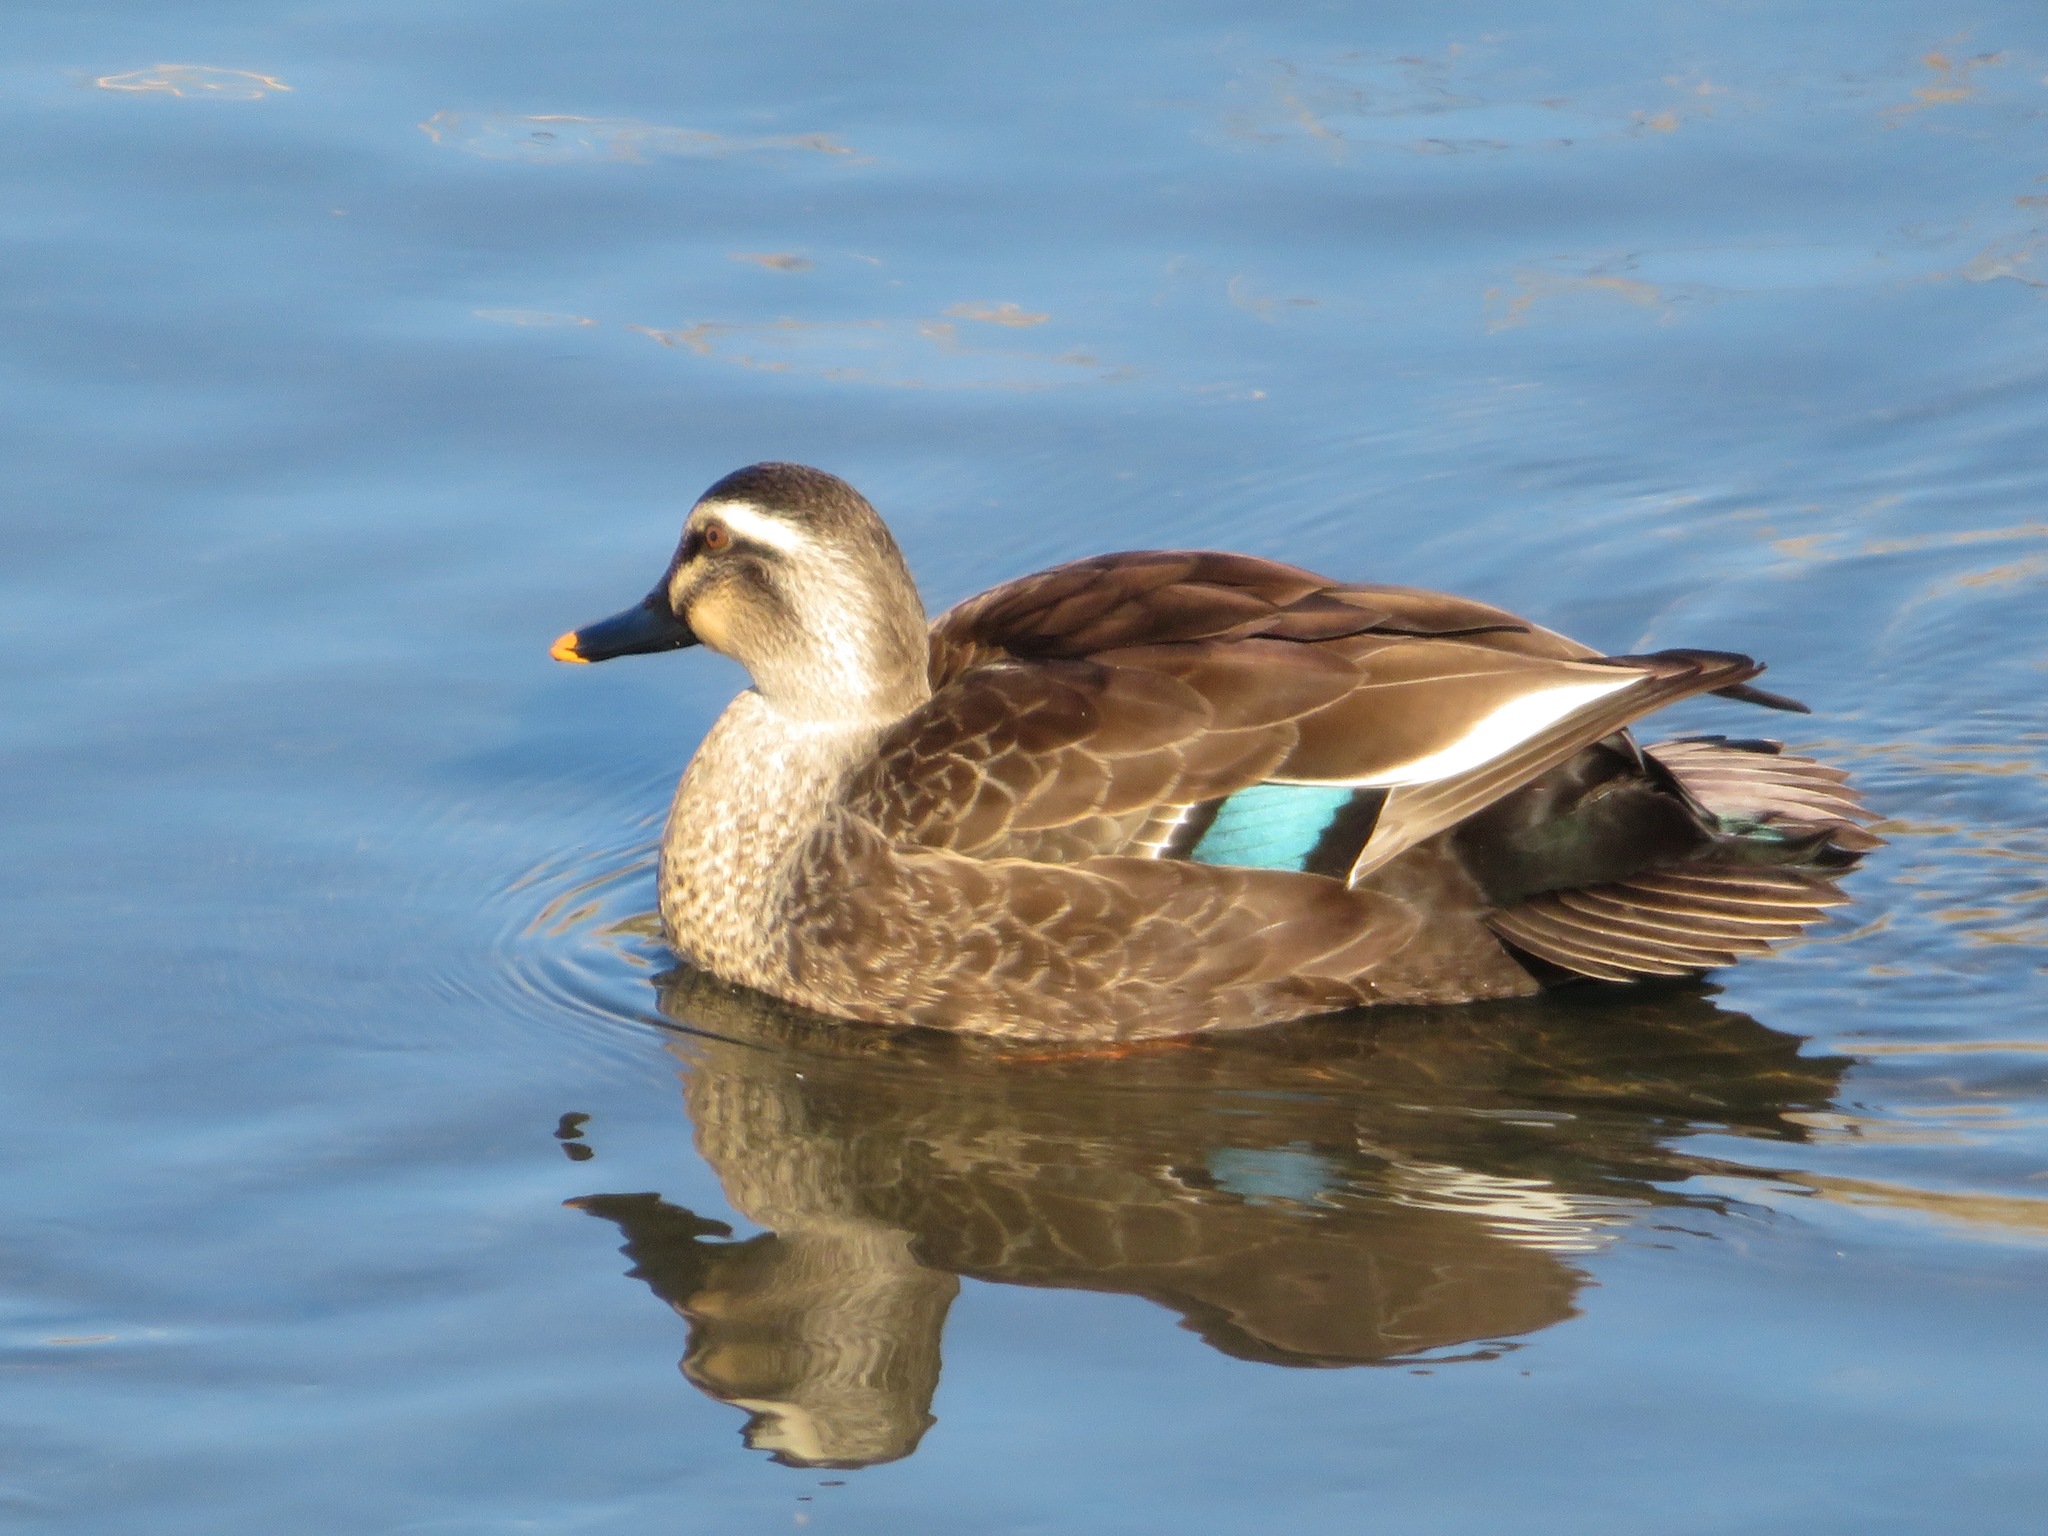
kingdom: Animalia
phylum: Chordata
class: Aves
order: Anseriformes
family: Anatidae
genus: Anas
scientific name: Anas zonorhyncha
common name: Eastern spot-billed duck
